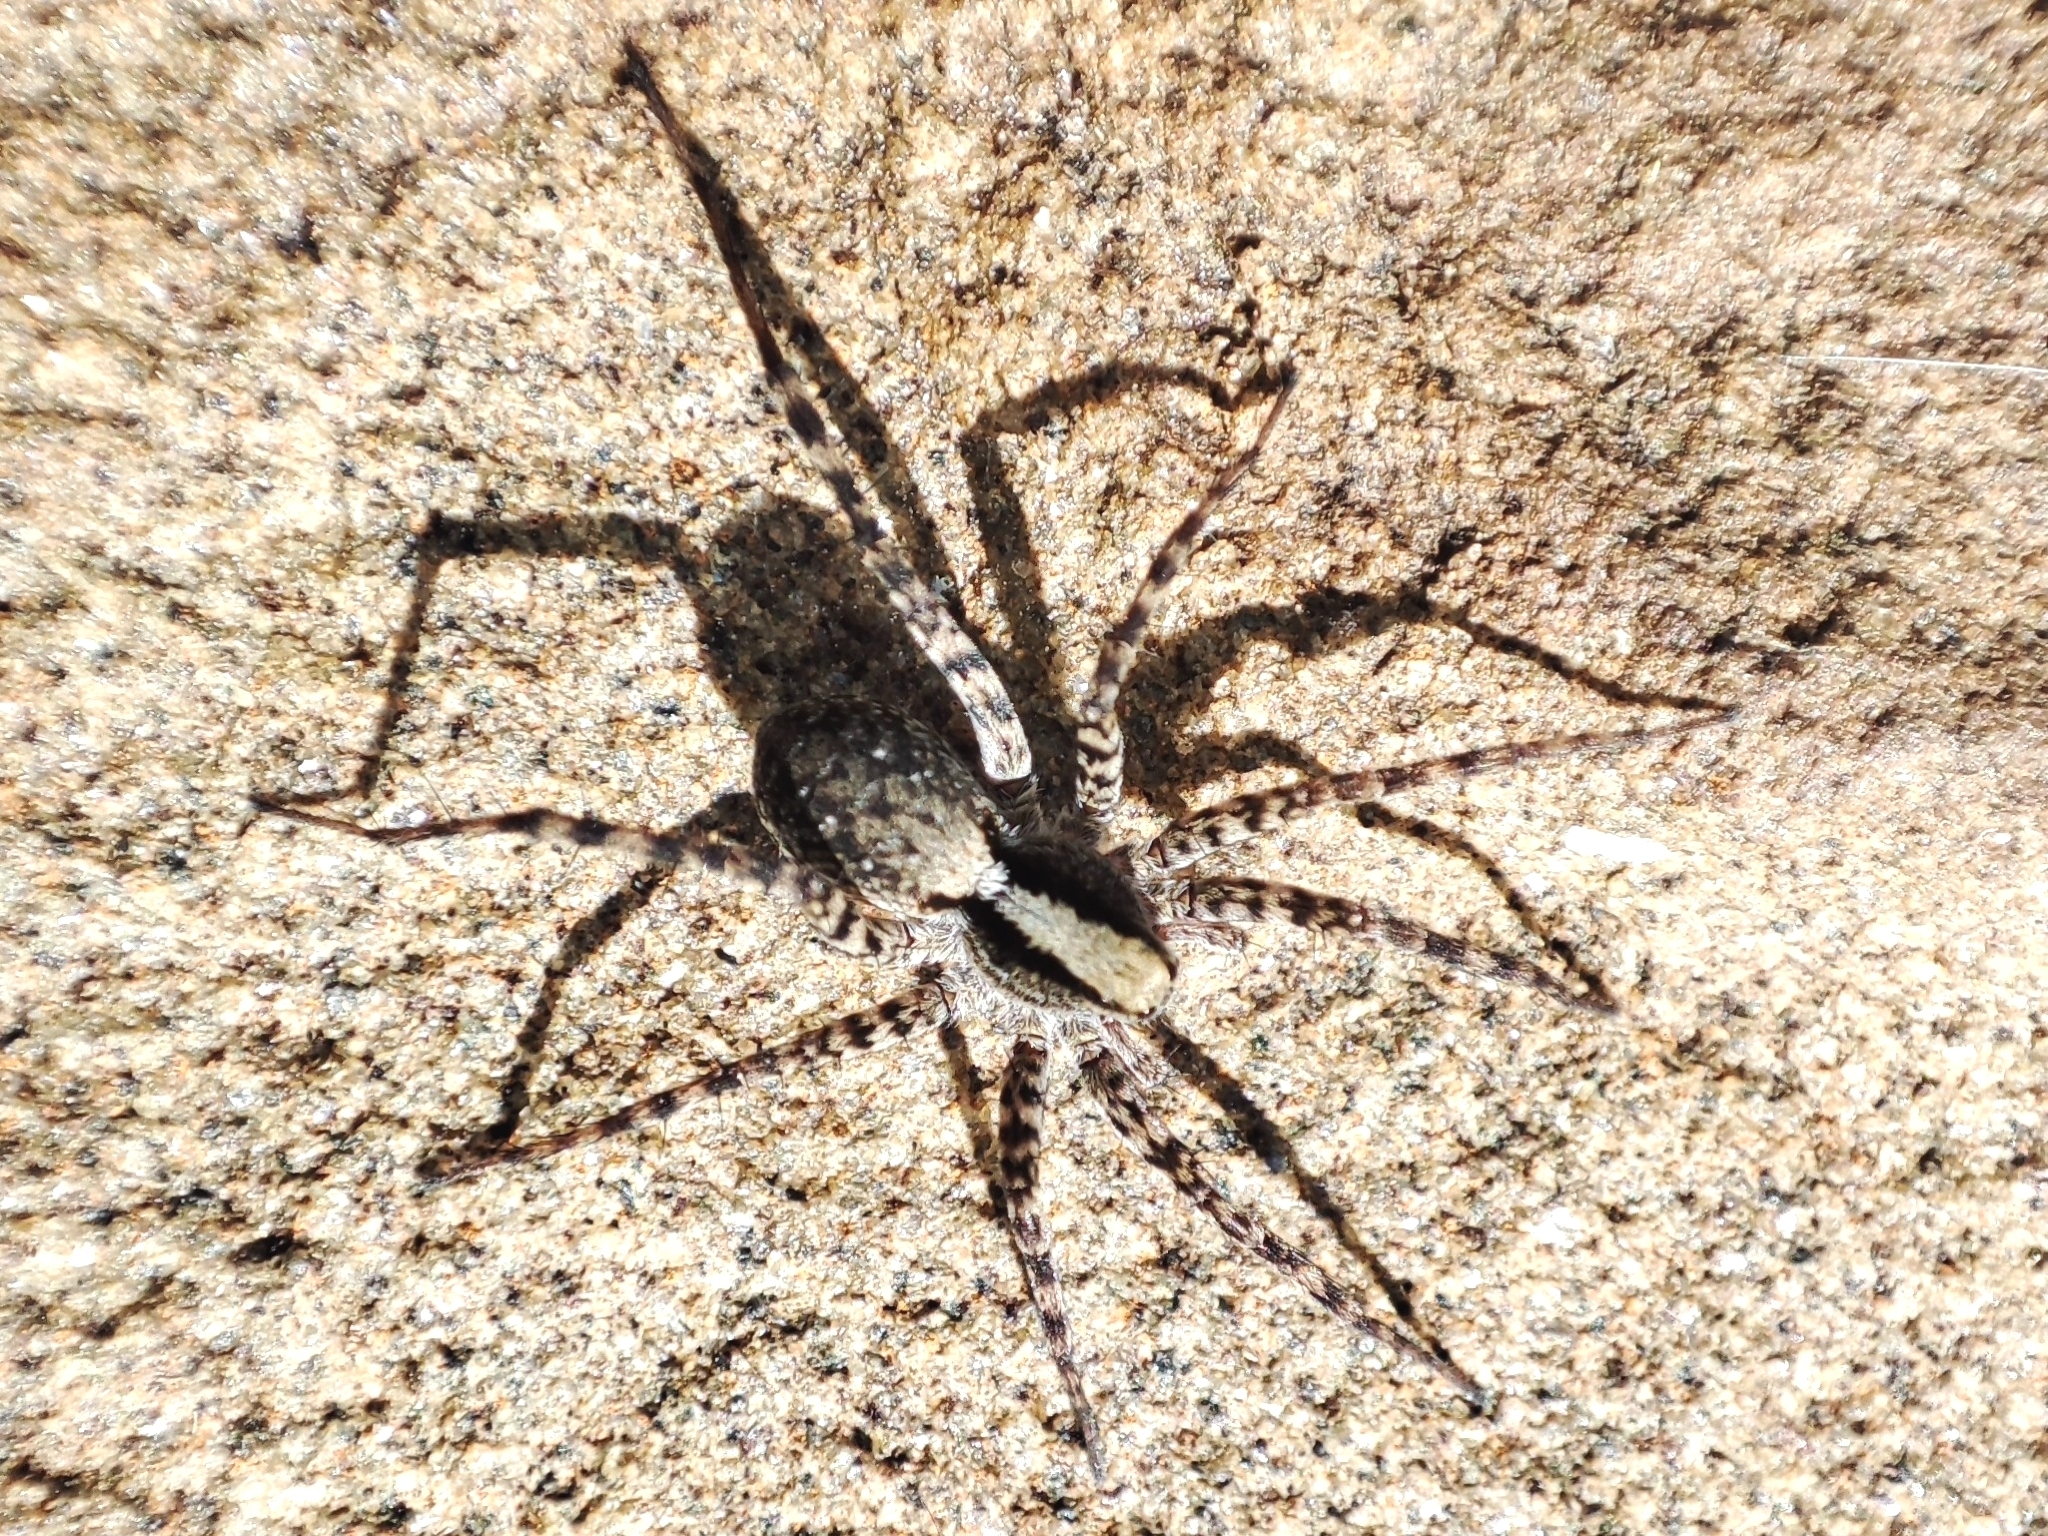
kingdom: Animalia
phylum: Arthropoda
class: Arachnida
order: Araneae
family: Lycosidae
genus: Pardosa
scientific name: Pardosa
